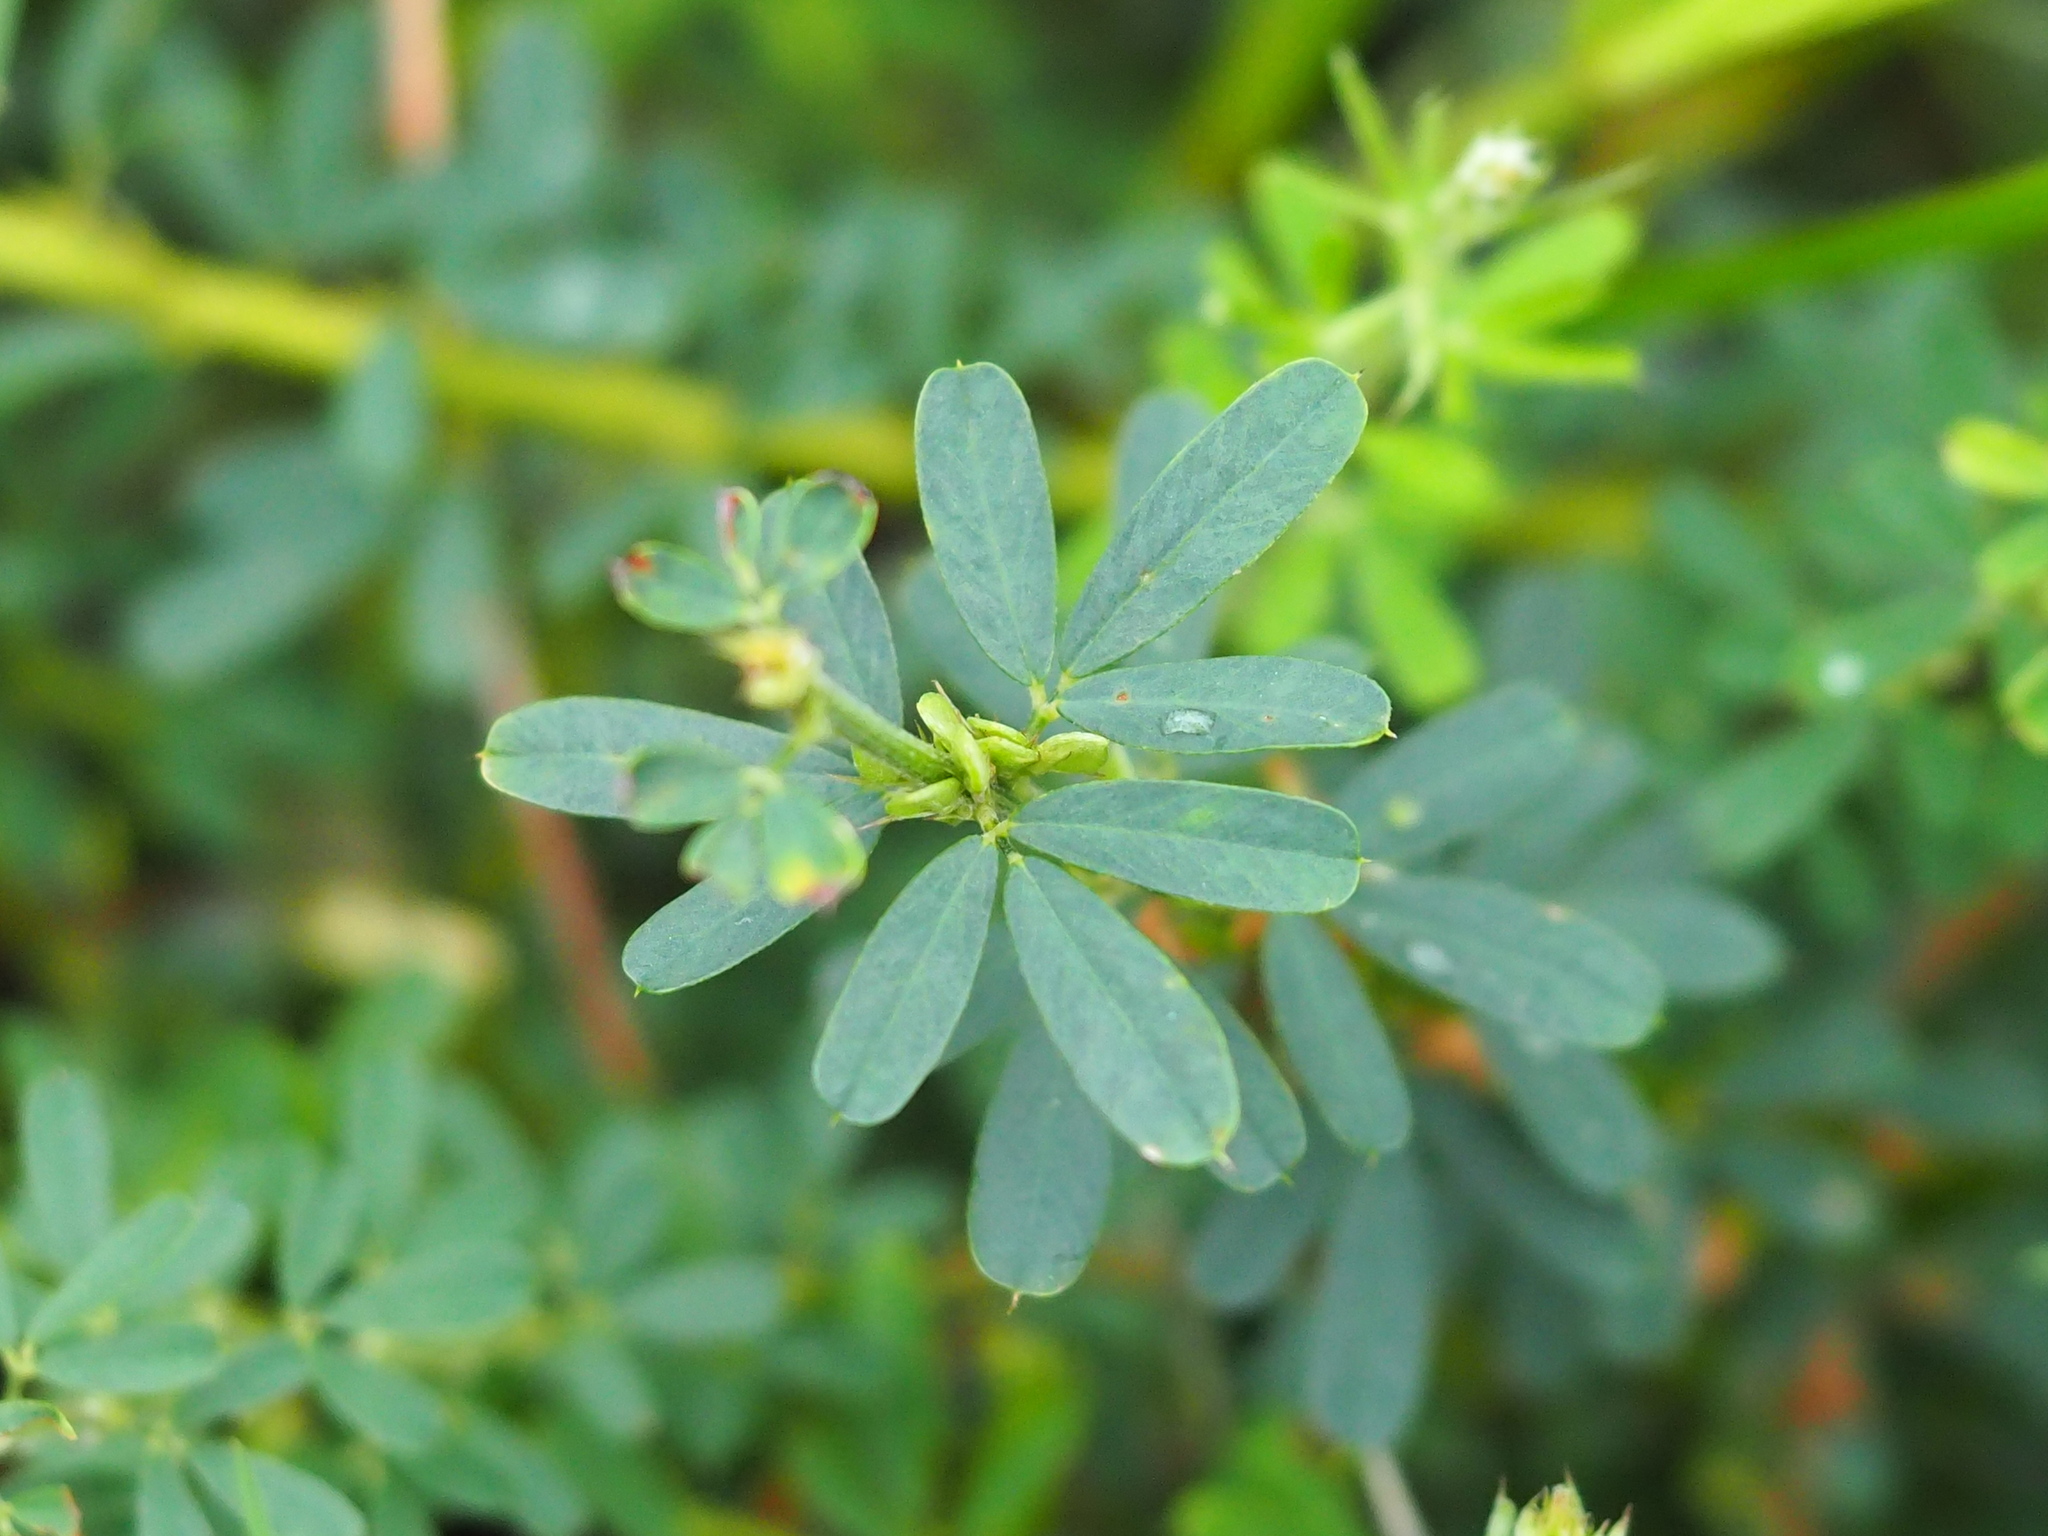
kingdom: Plantae
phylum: Tracheophyta
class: Magnoliopsida
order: Fabales
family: Fabaceae
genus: Lespedeza
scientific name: Lespedeza cuneata
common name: Chinese bush-clover
